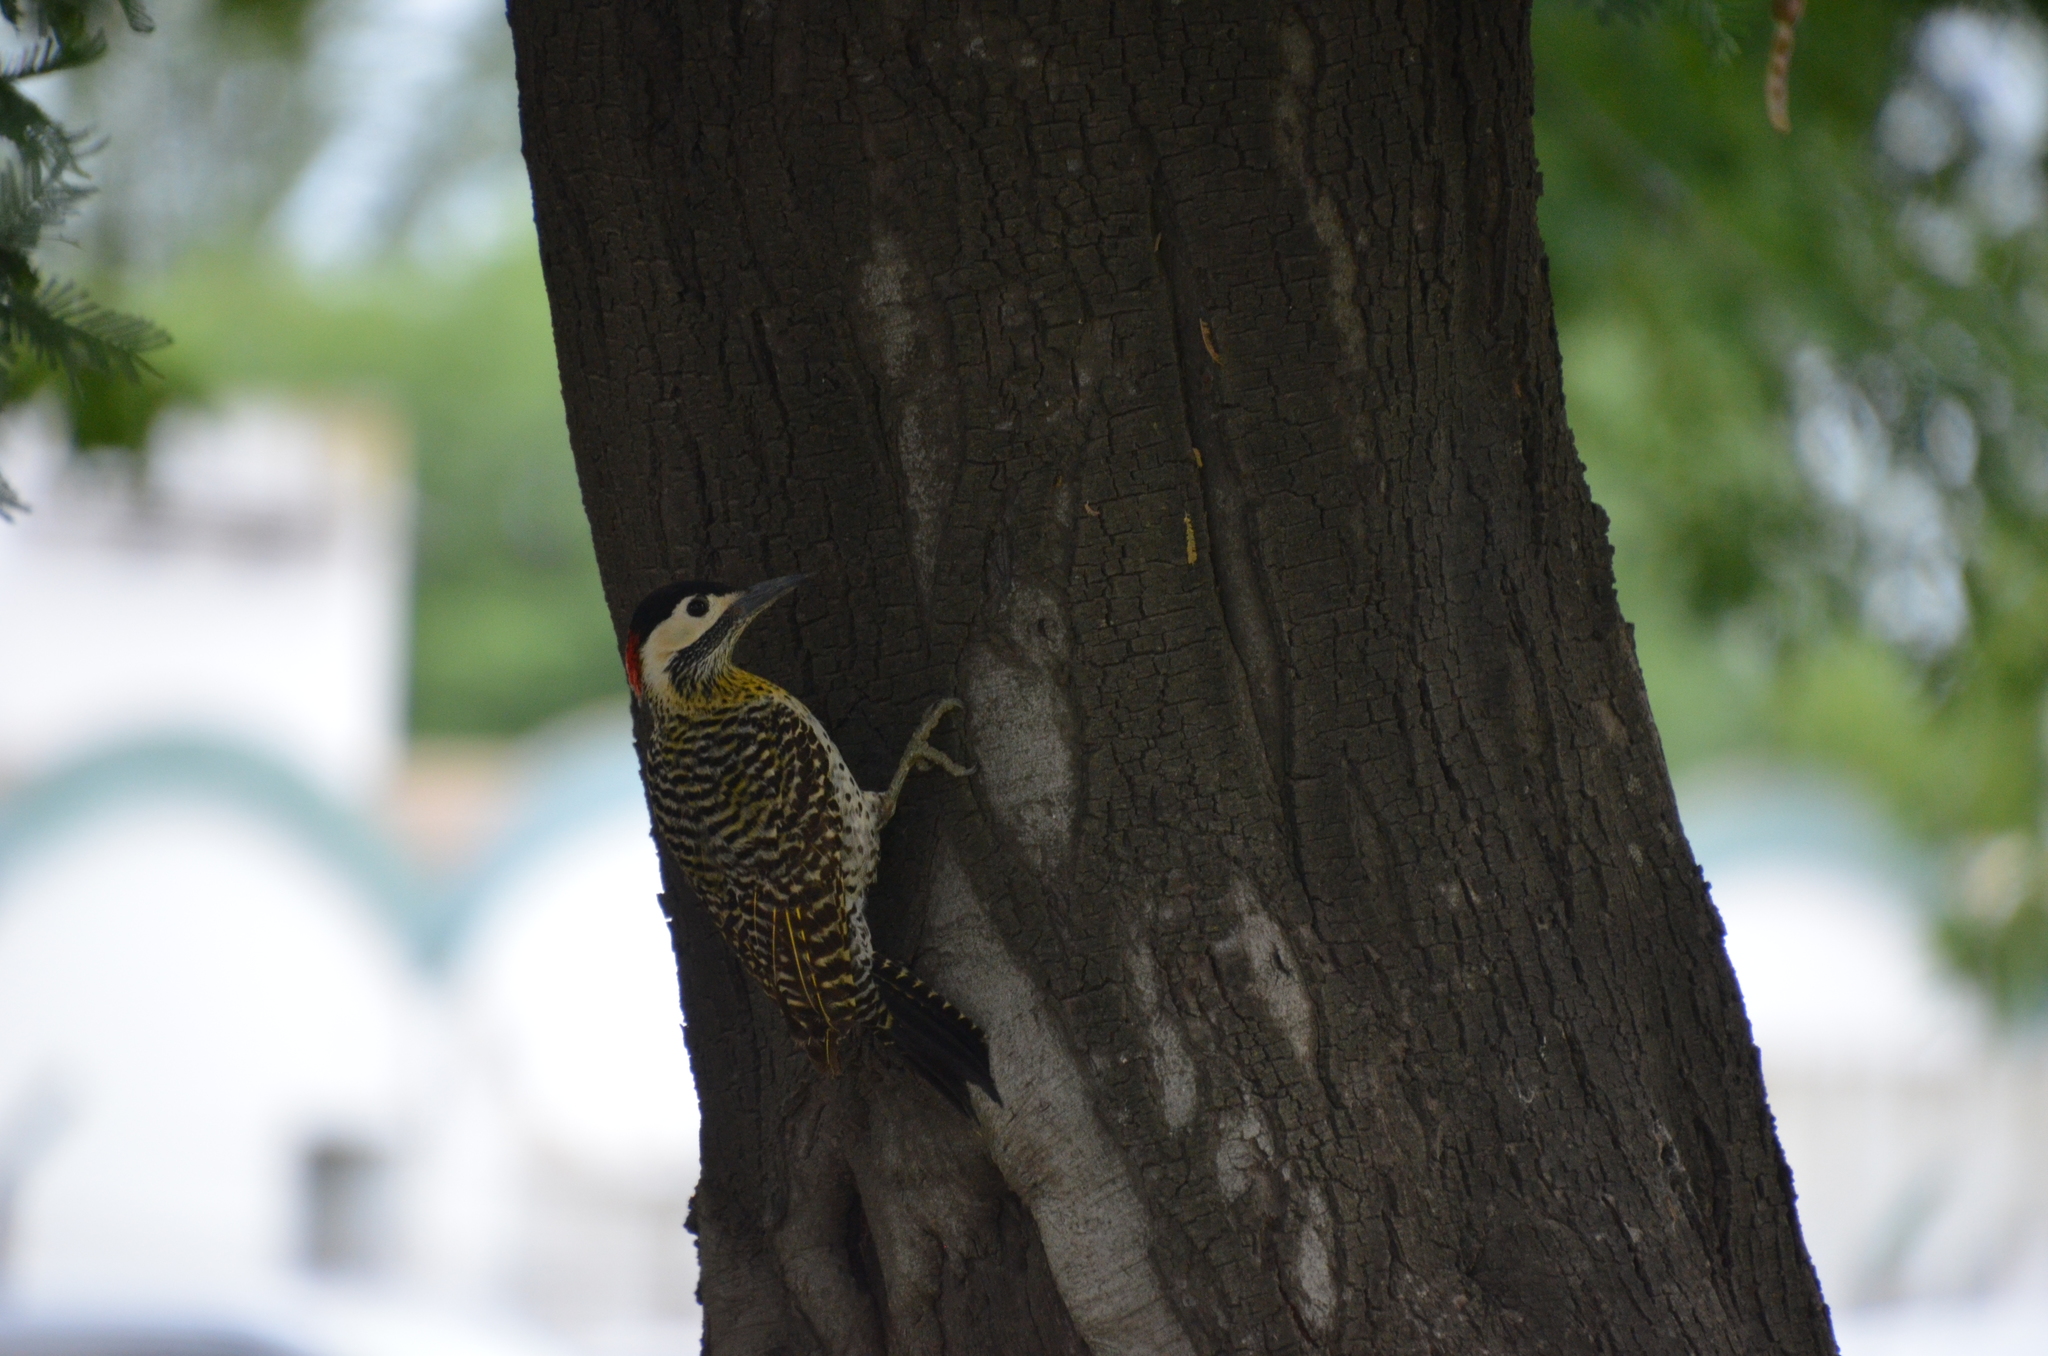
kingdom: Animalia
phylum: Chordata
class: Aves
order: Piciformes
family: Picidae
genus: Colaptes
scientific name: Colaptes melanochloros
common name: Green-barred woodpecker
